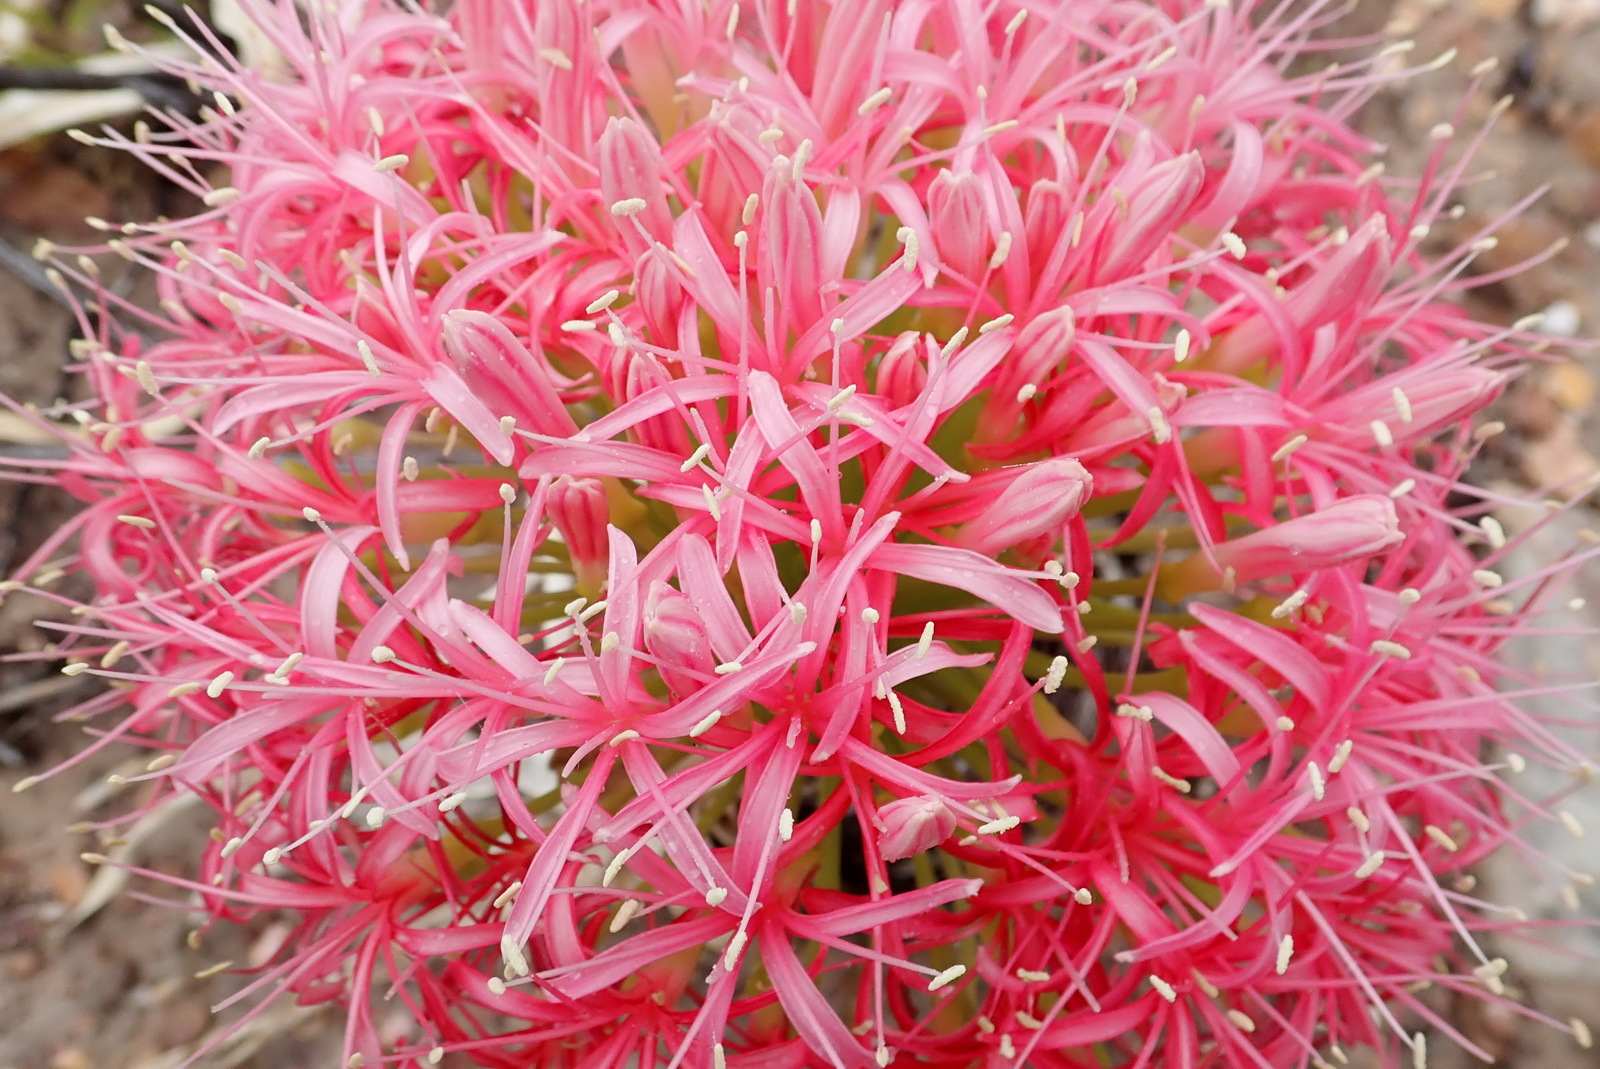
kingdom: Plantae
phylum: Tracheophyta
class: Liliopsida
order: Asparagales
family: Amaryllidaceae
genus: Boophone
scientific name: Boophone disticha
